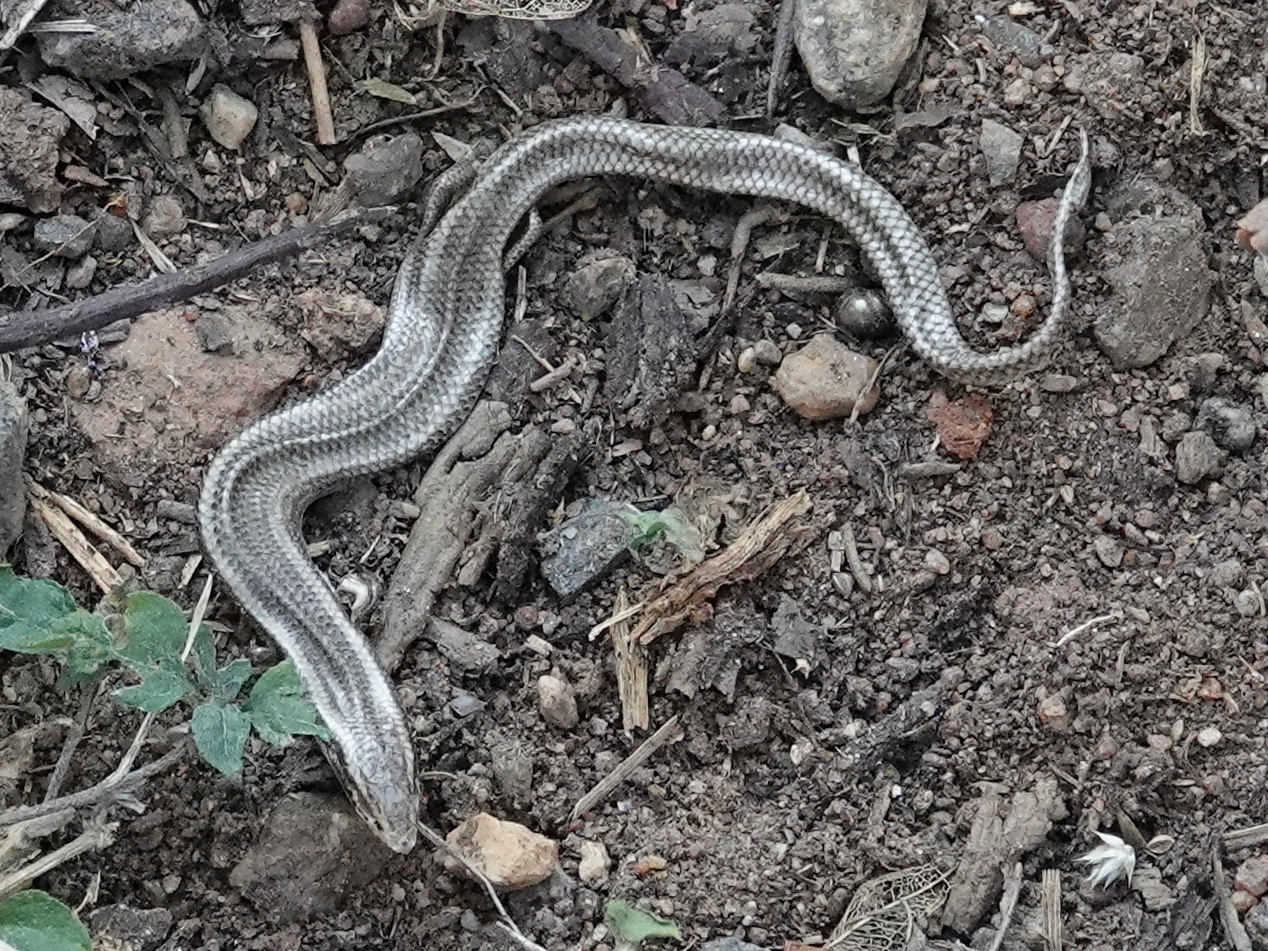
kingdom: Animalia
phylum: Chordata
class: Squamata
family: Scincidae
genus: Riopa
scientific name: Riopa punctata
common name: Common dotted garden skink
